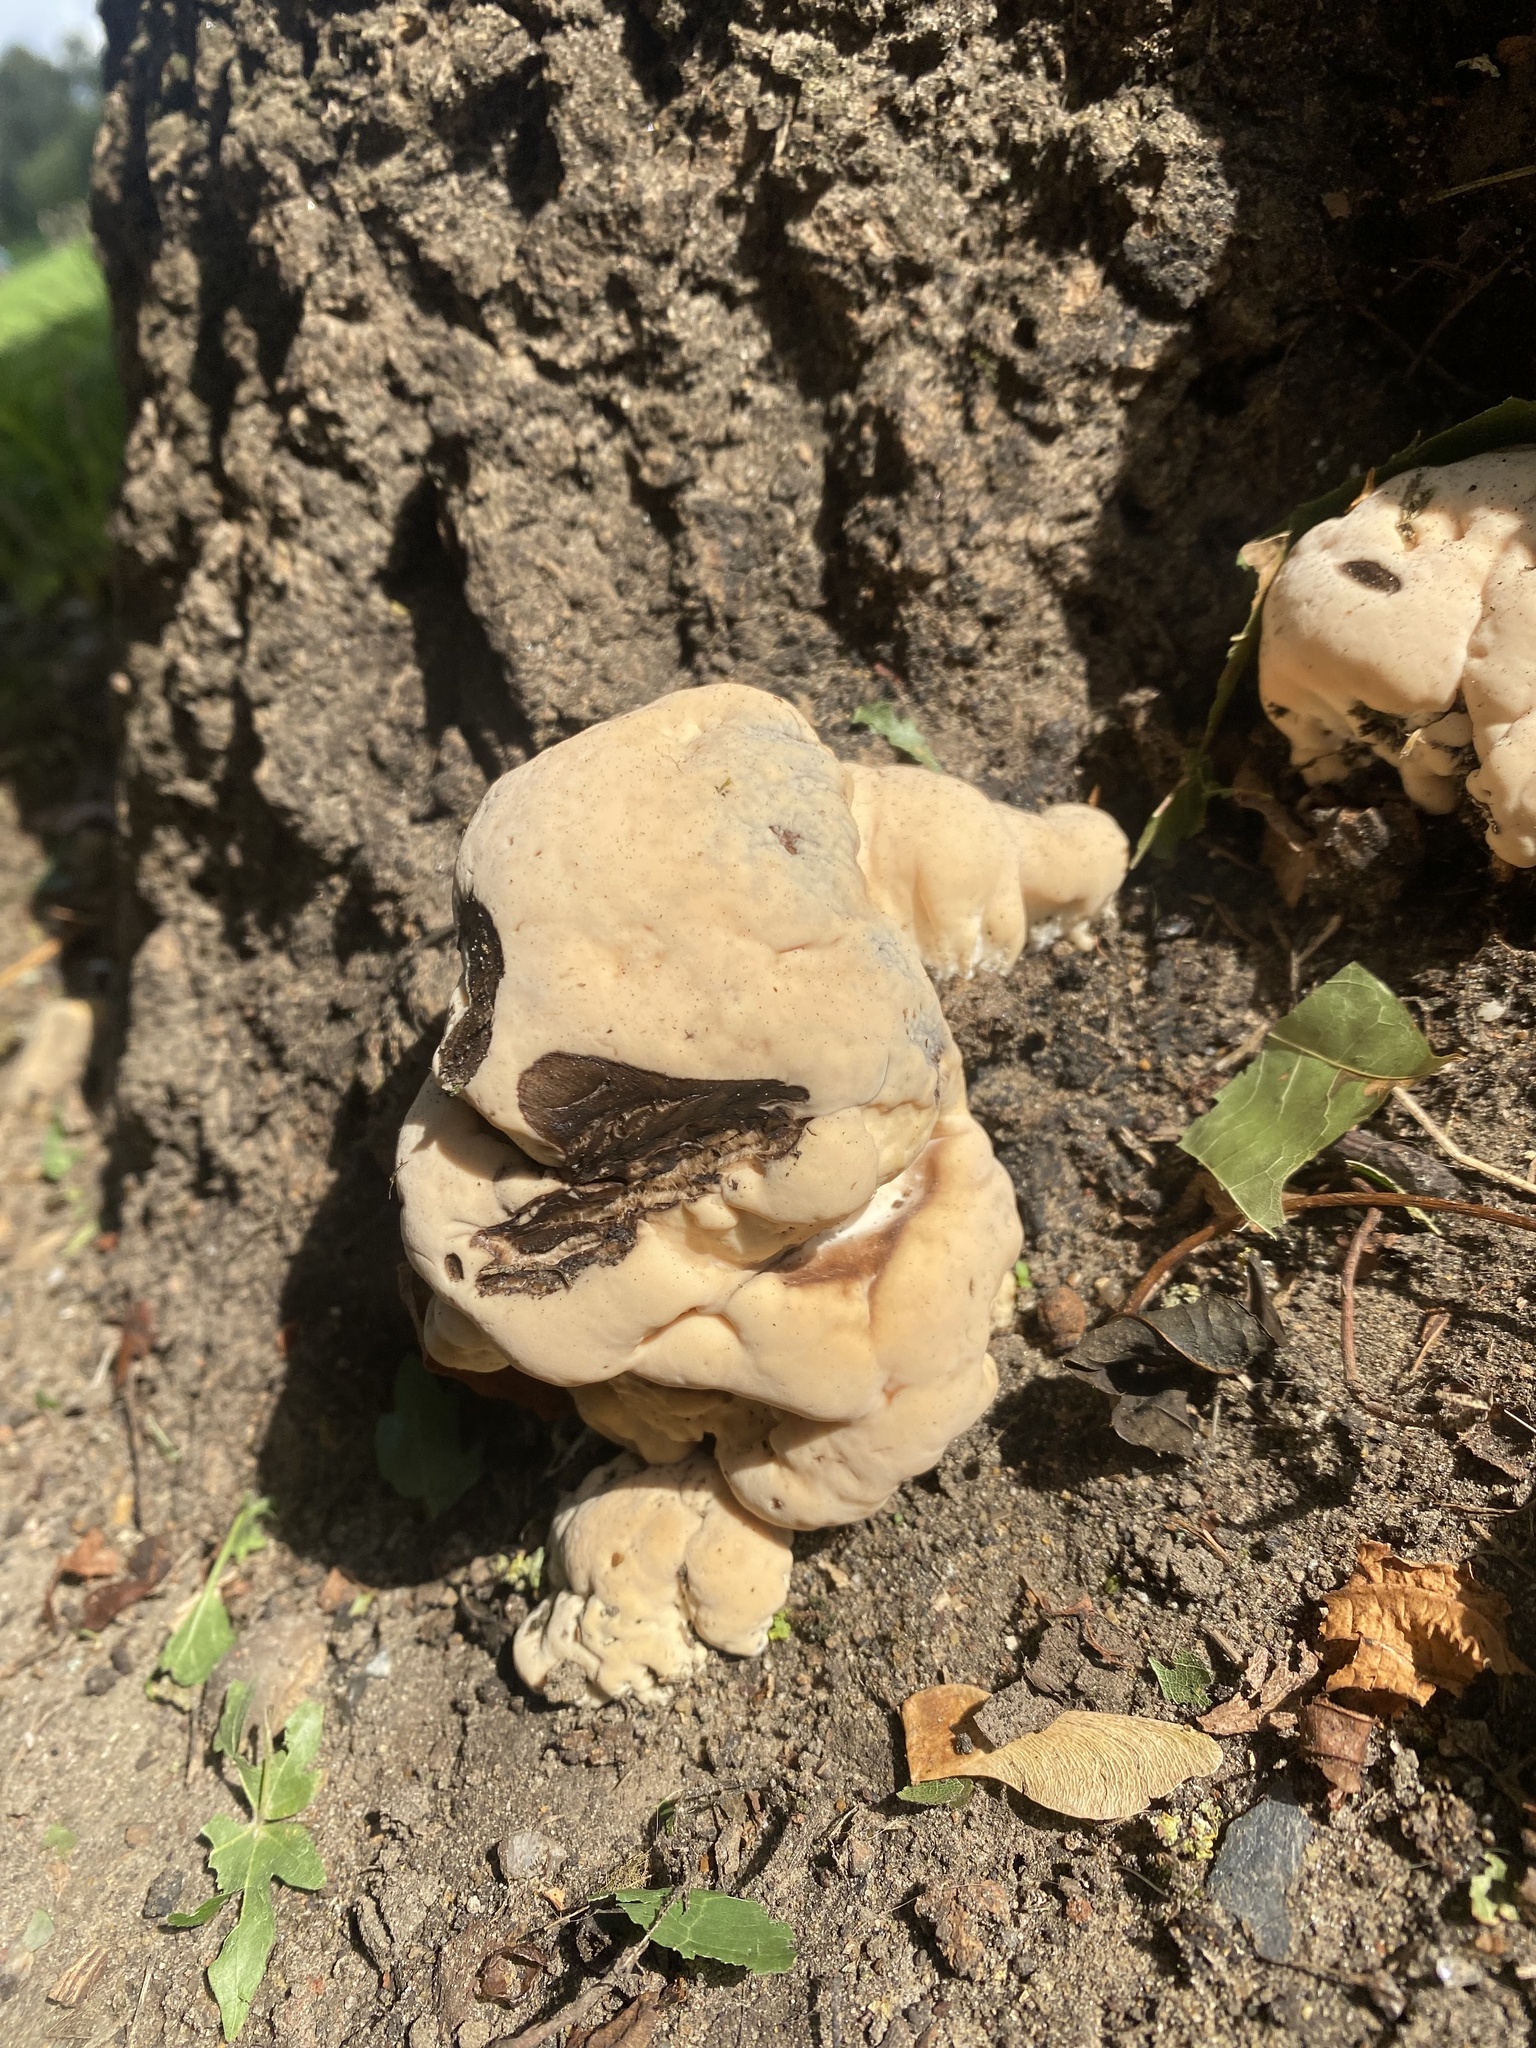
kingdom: Fungi
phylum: Basidiomycota
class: Agaricomycetes
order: Hymenochaetales
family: Hymenochaetaceae
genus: Pseudoinonotus
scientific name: Pseudoinonotus dryadeus
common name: Oak bracket
